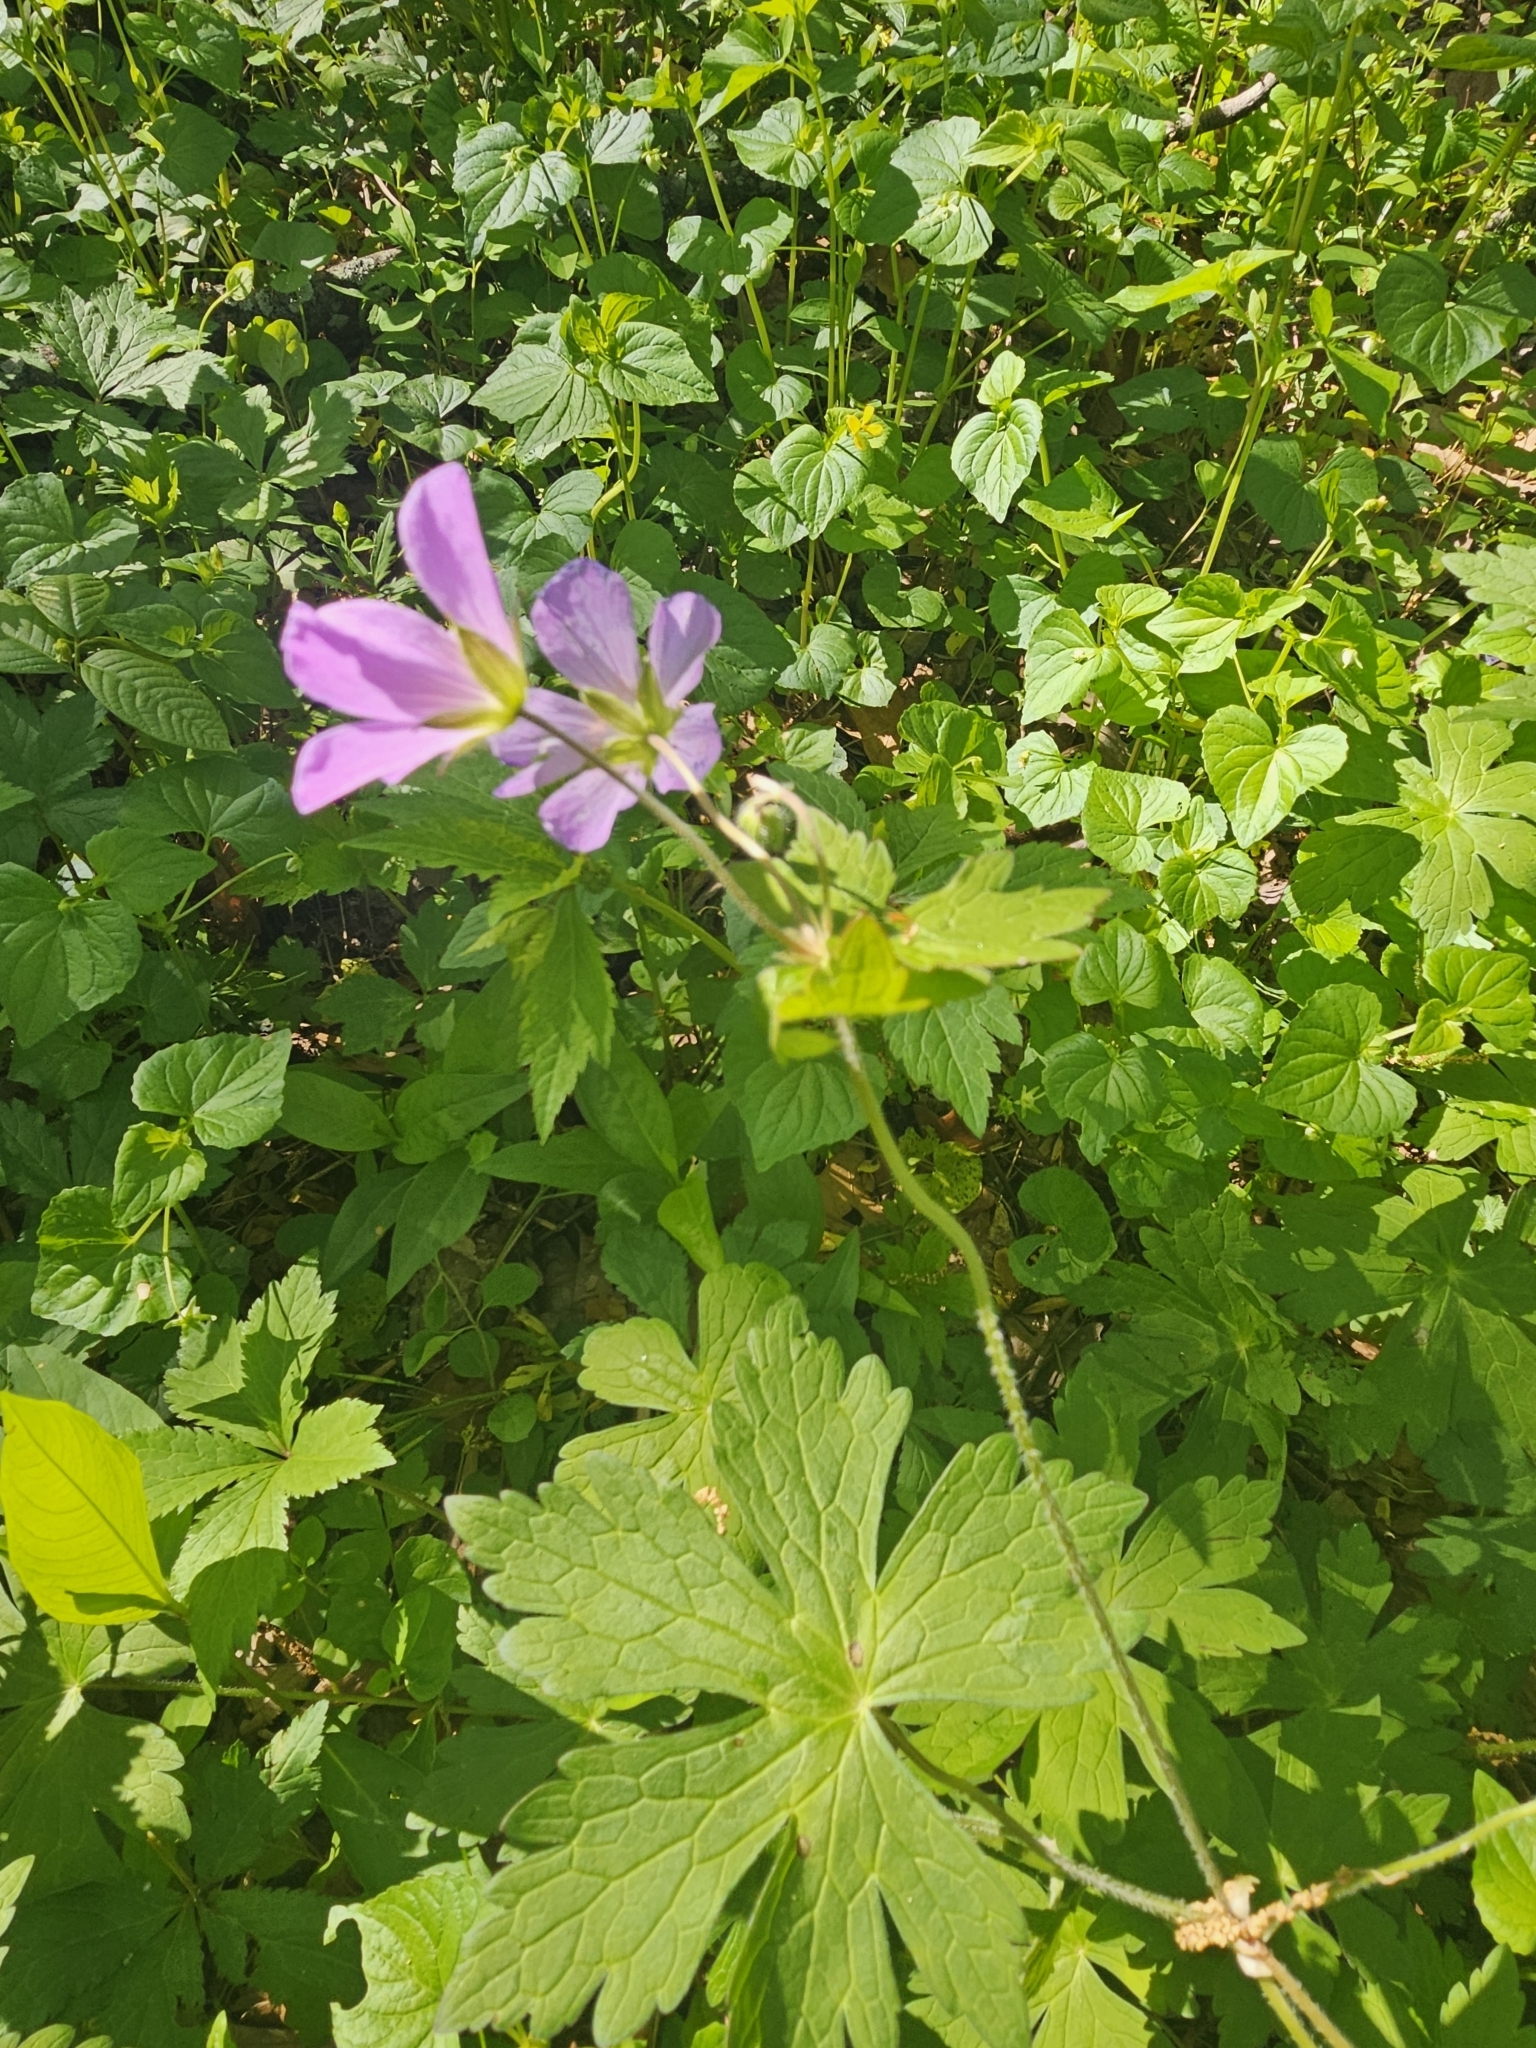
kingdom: Plantae
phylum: Tracheophyta
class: Magnoliopsida
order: Geraniales
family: Geraniaceae
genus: Geranium
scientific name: Geranium maculatum
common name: Spotted geranium
